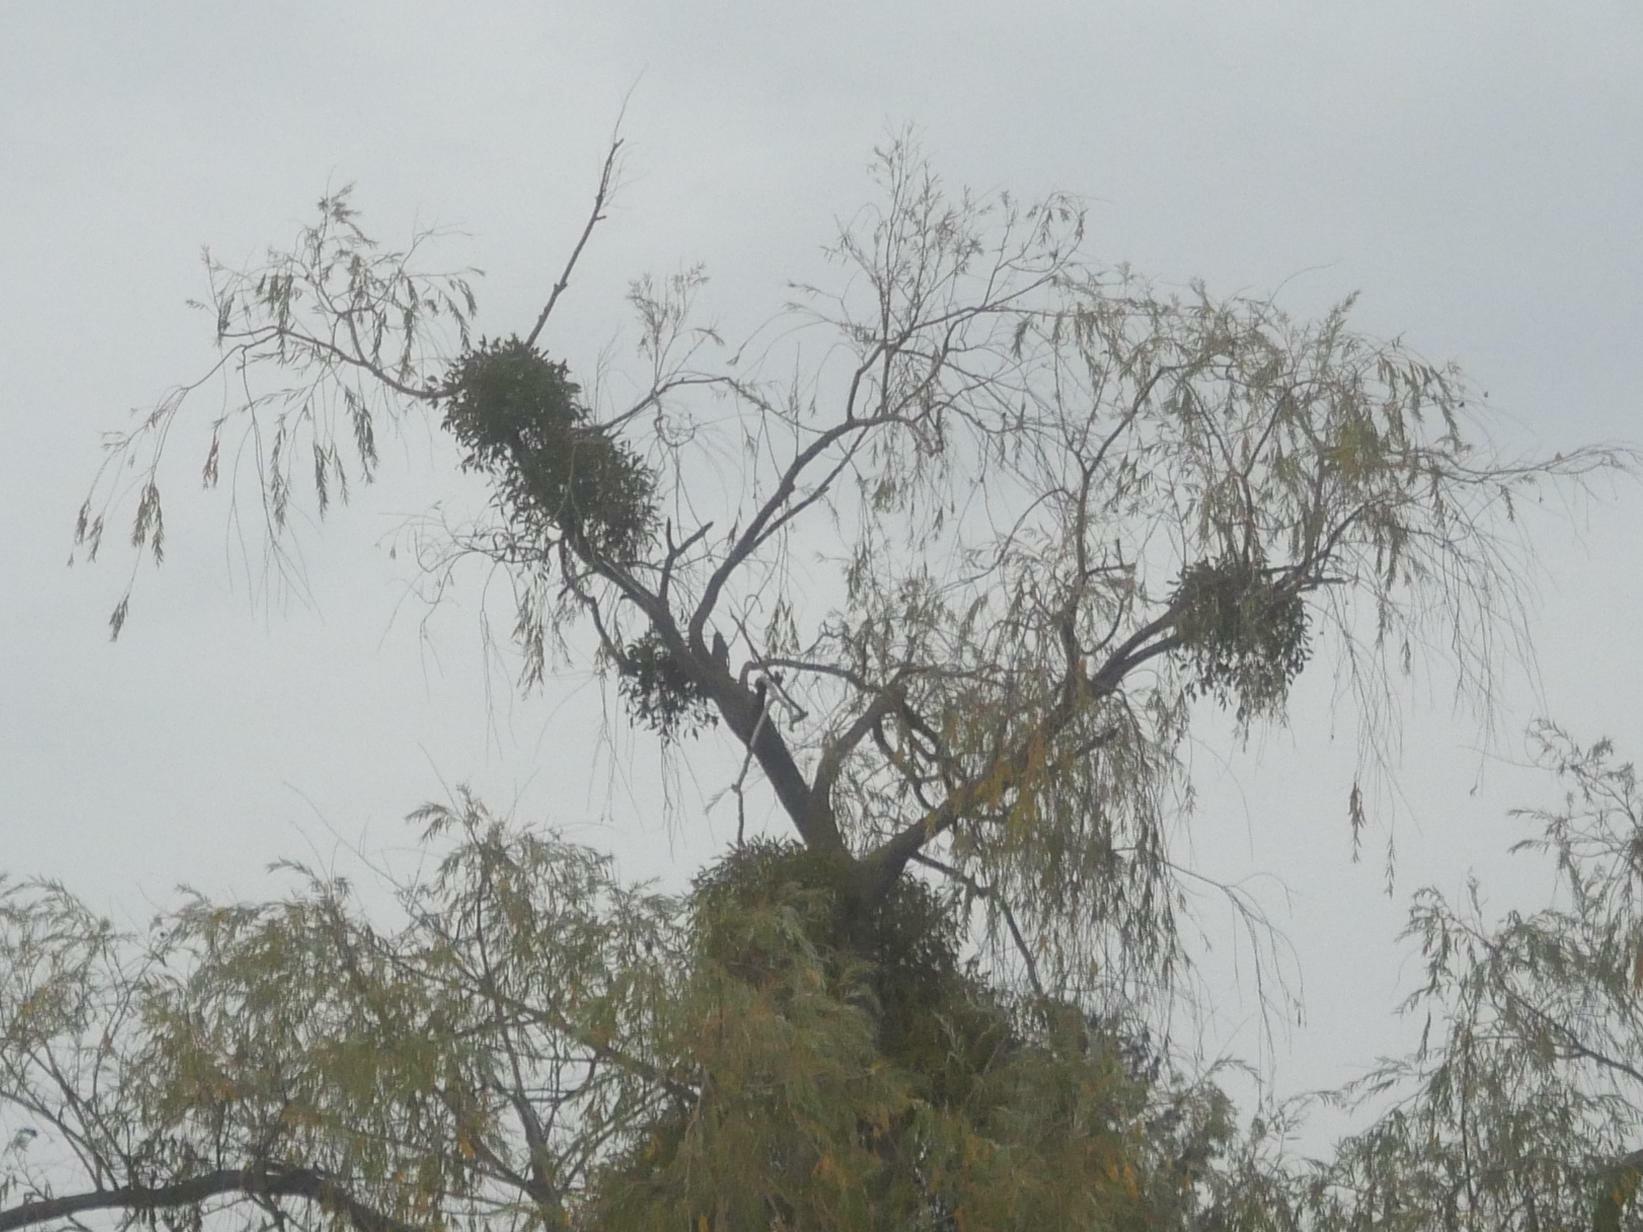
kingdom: Plantae
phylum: Tracheophyta
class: Magnoliopsida
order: Santalales
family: Viscaceae
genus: Viscum
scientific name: Viscum album
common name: Mistletoe
